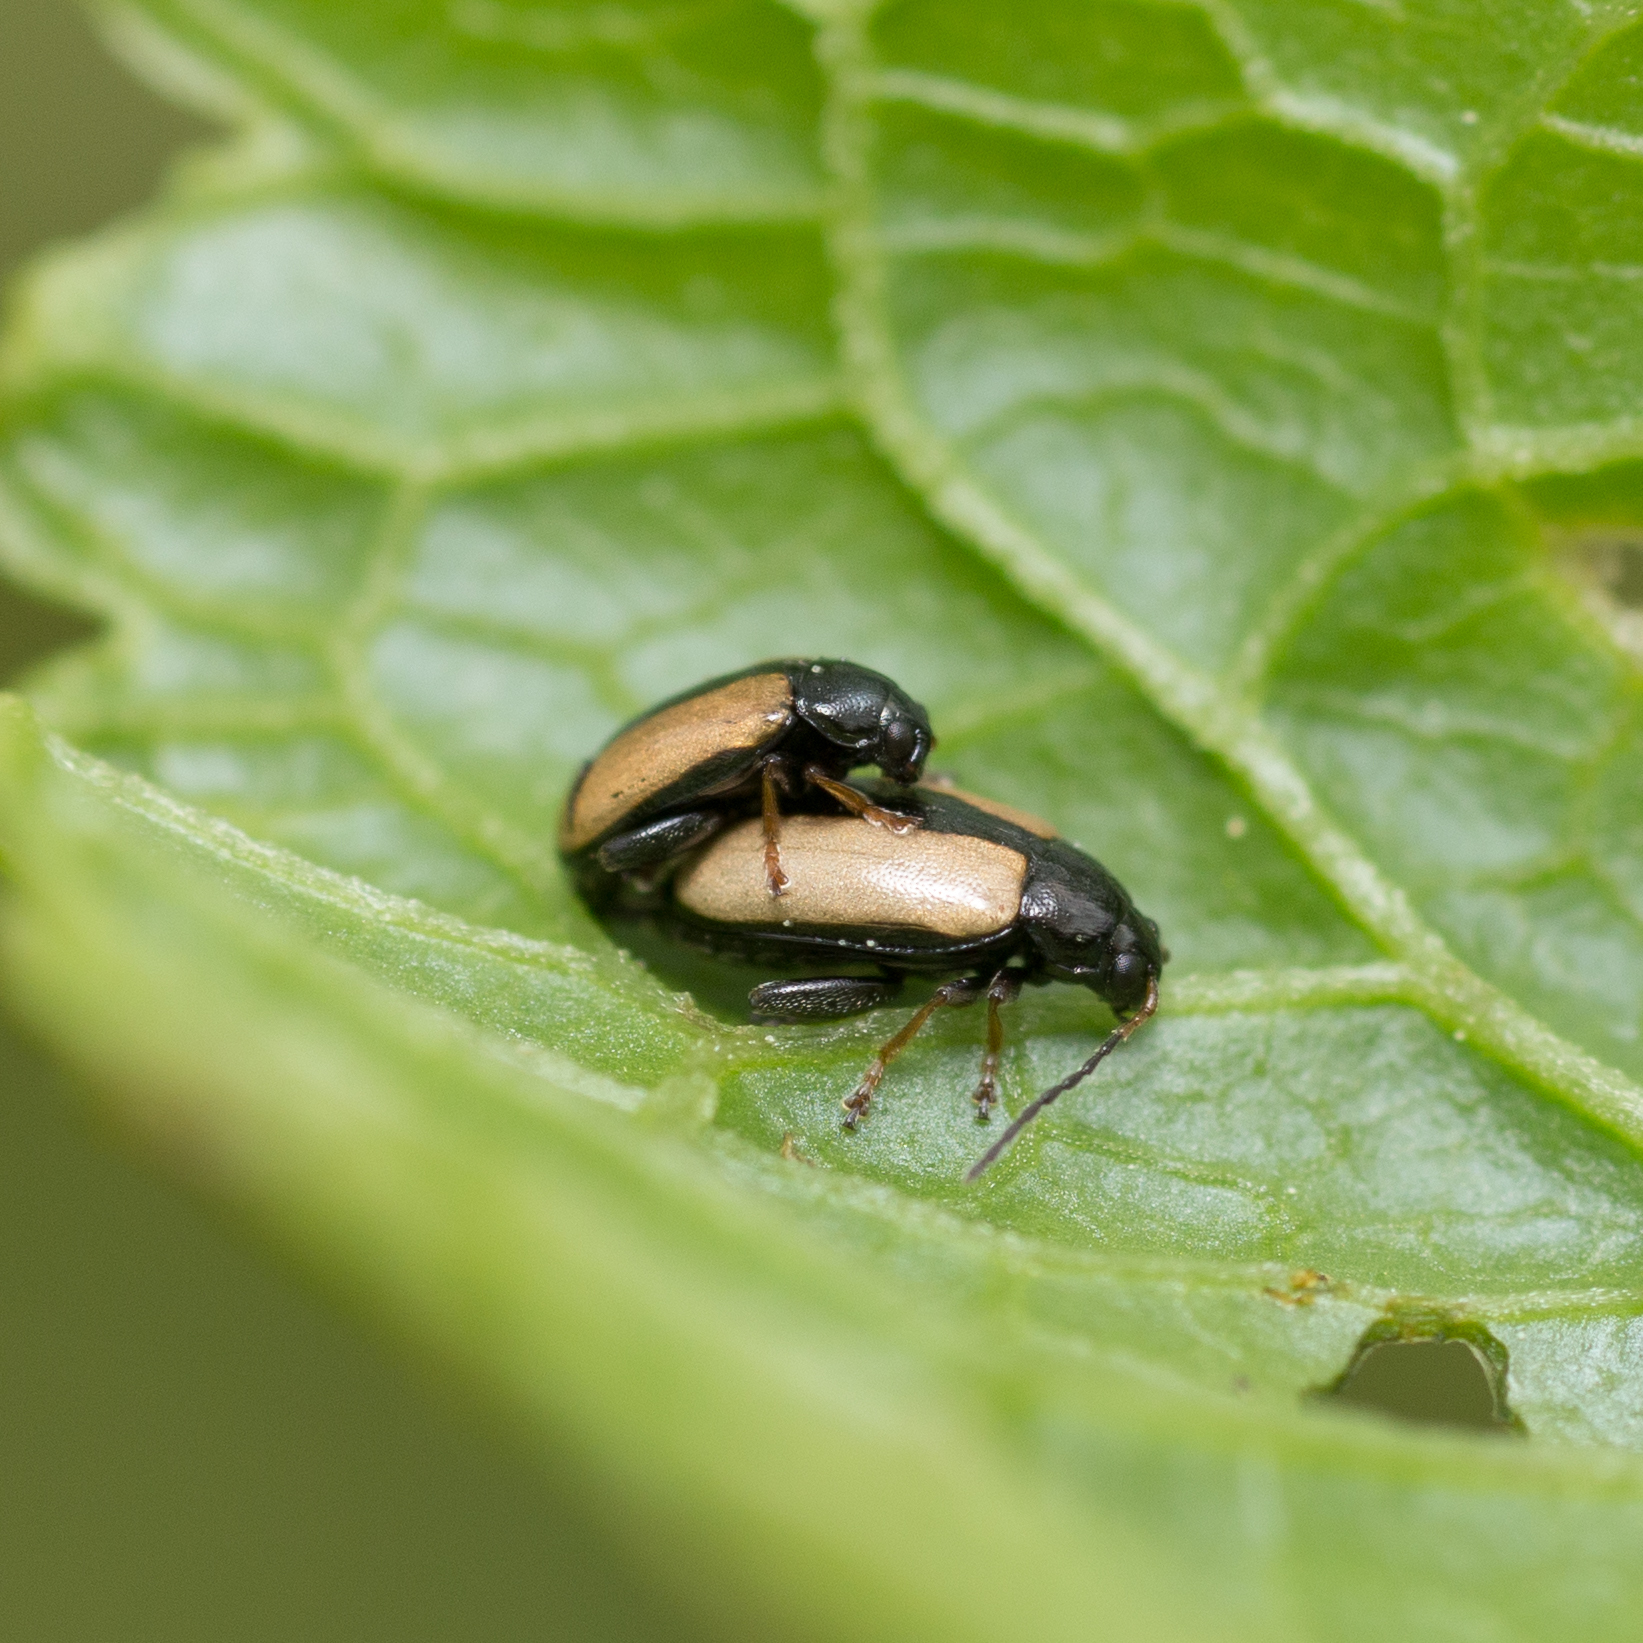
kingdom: Animalia
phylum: Arthropoda
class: Insecta
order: Coleoptera
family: Chrysomelidae
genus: Phyllotreta
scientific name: Phyllotreta armoraciae
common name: Horseradish flea beetle
